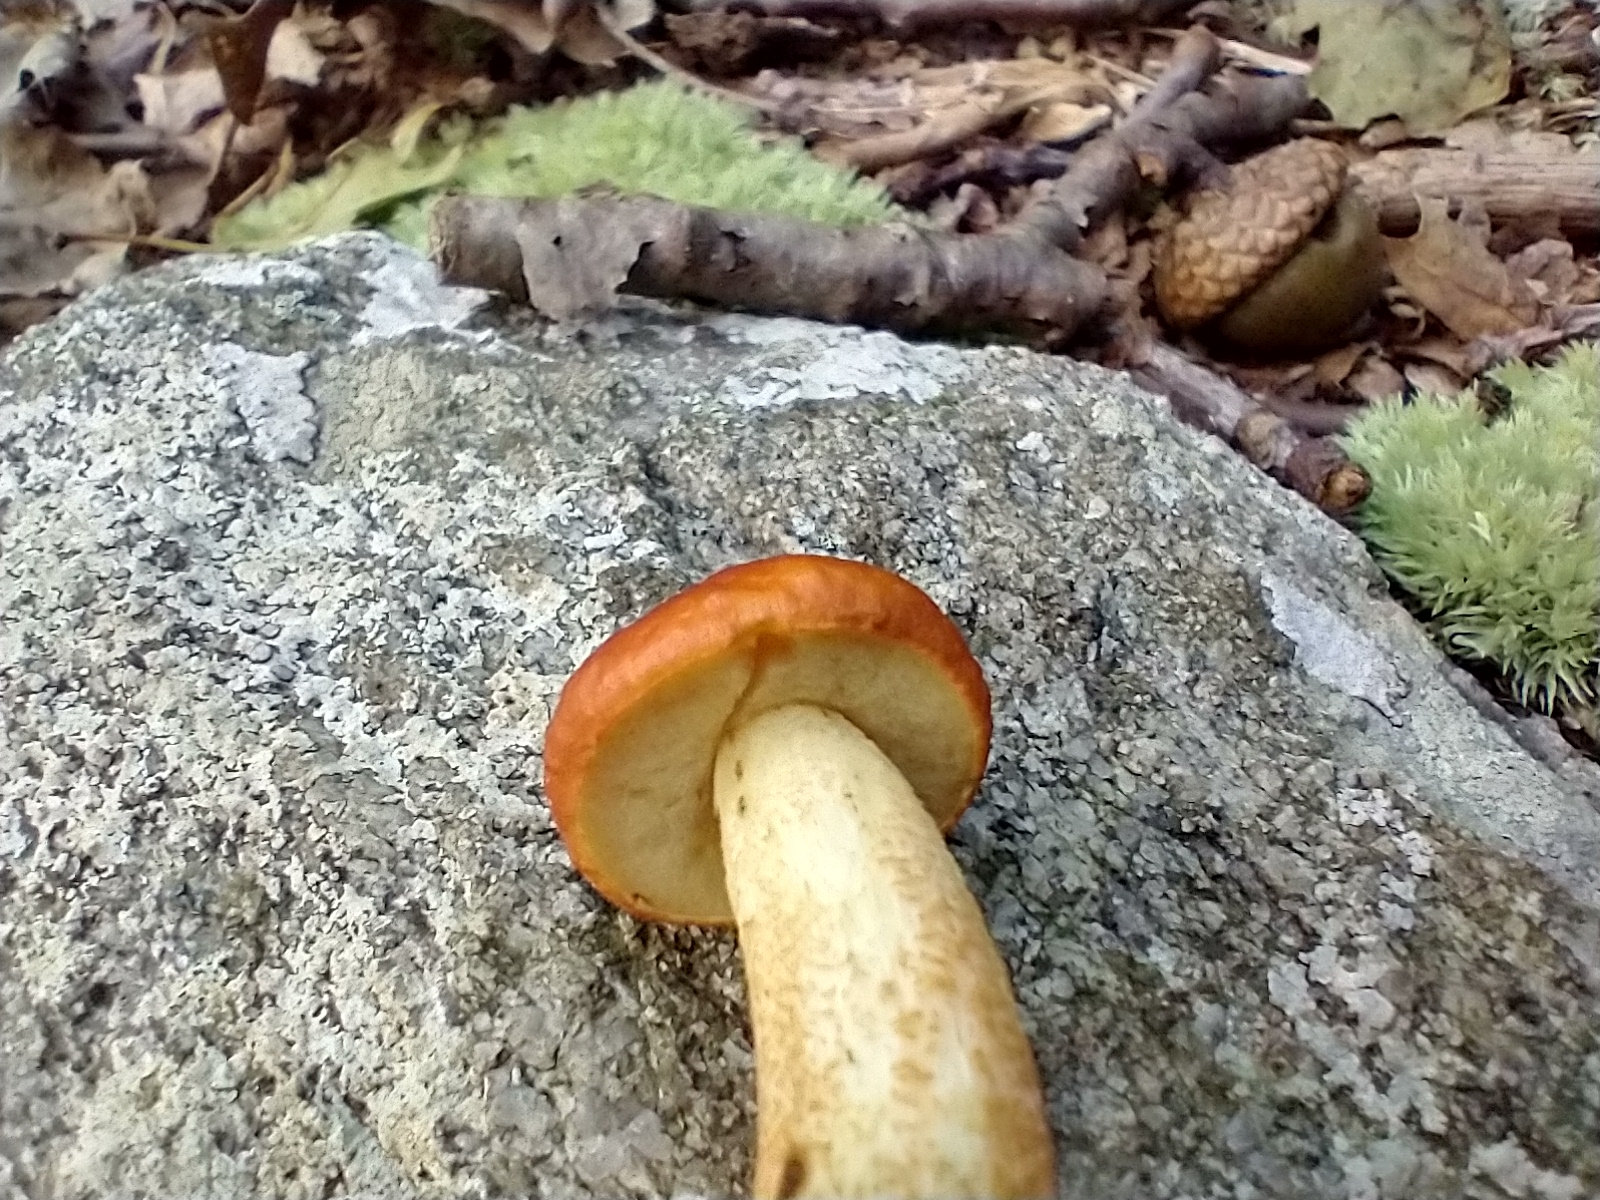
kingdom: Fungi
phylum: Basidiomycota
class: Agaricomycetes
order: Boletales
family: Boletaceae
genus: Leccinum
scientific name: Leccinum longicurvipes
